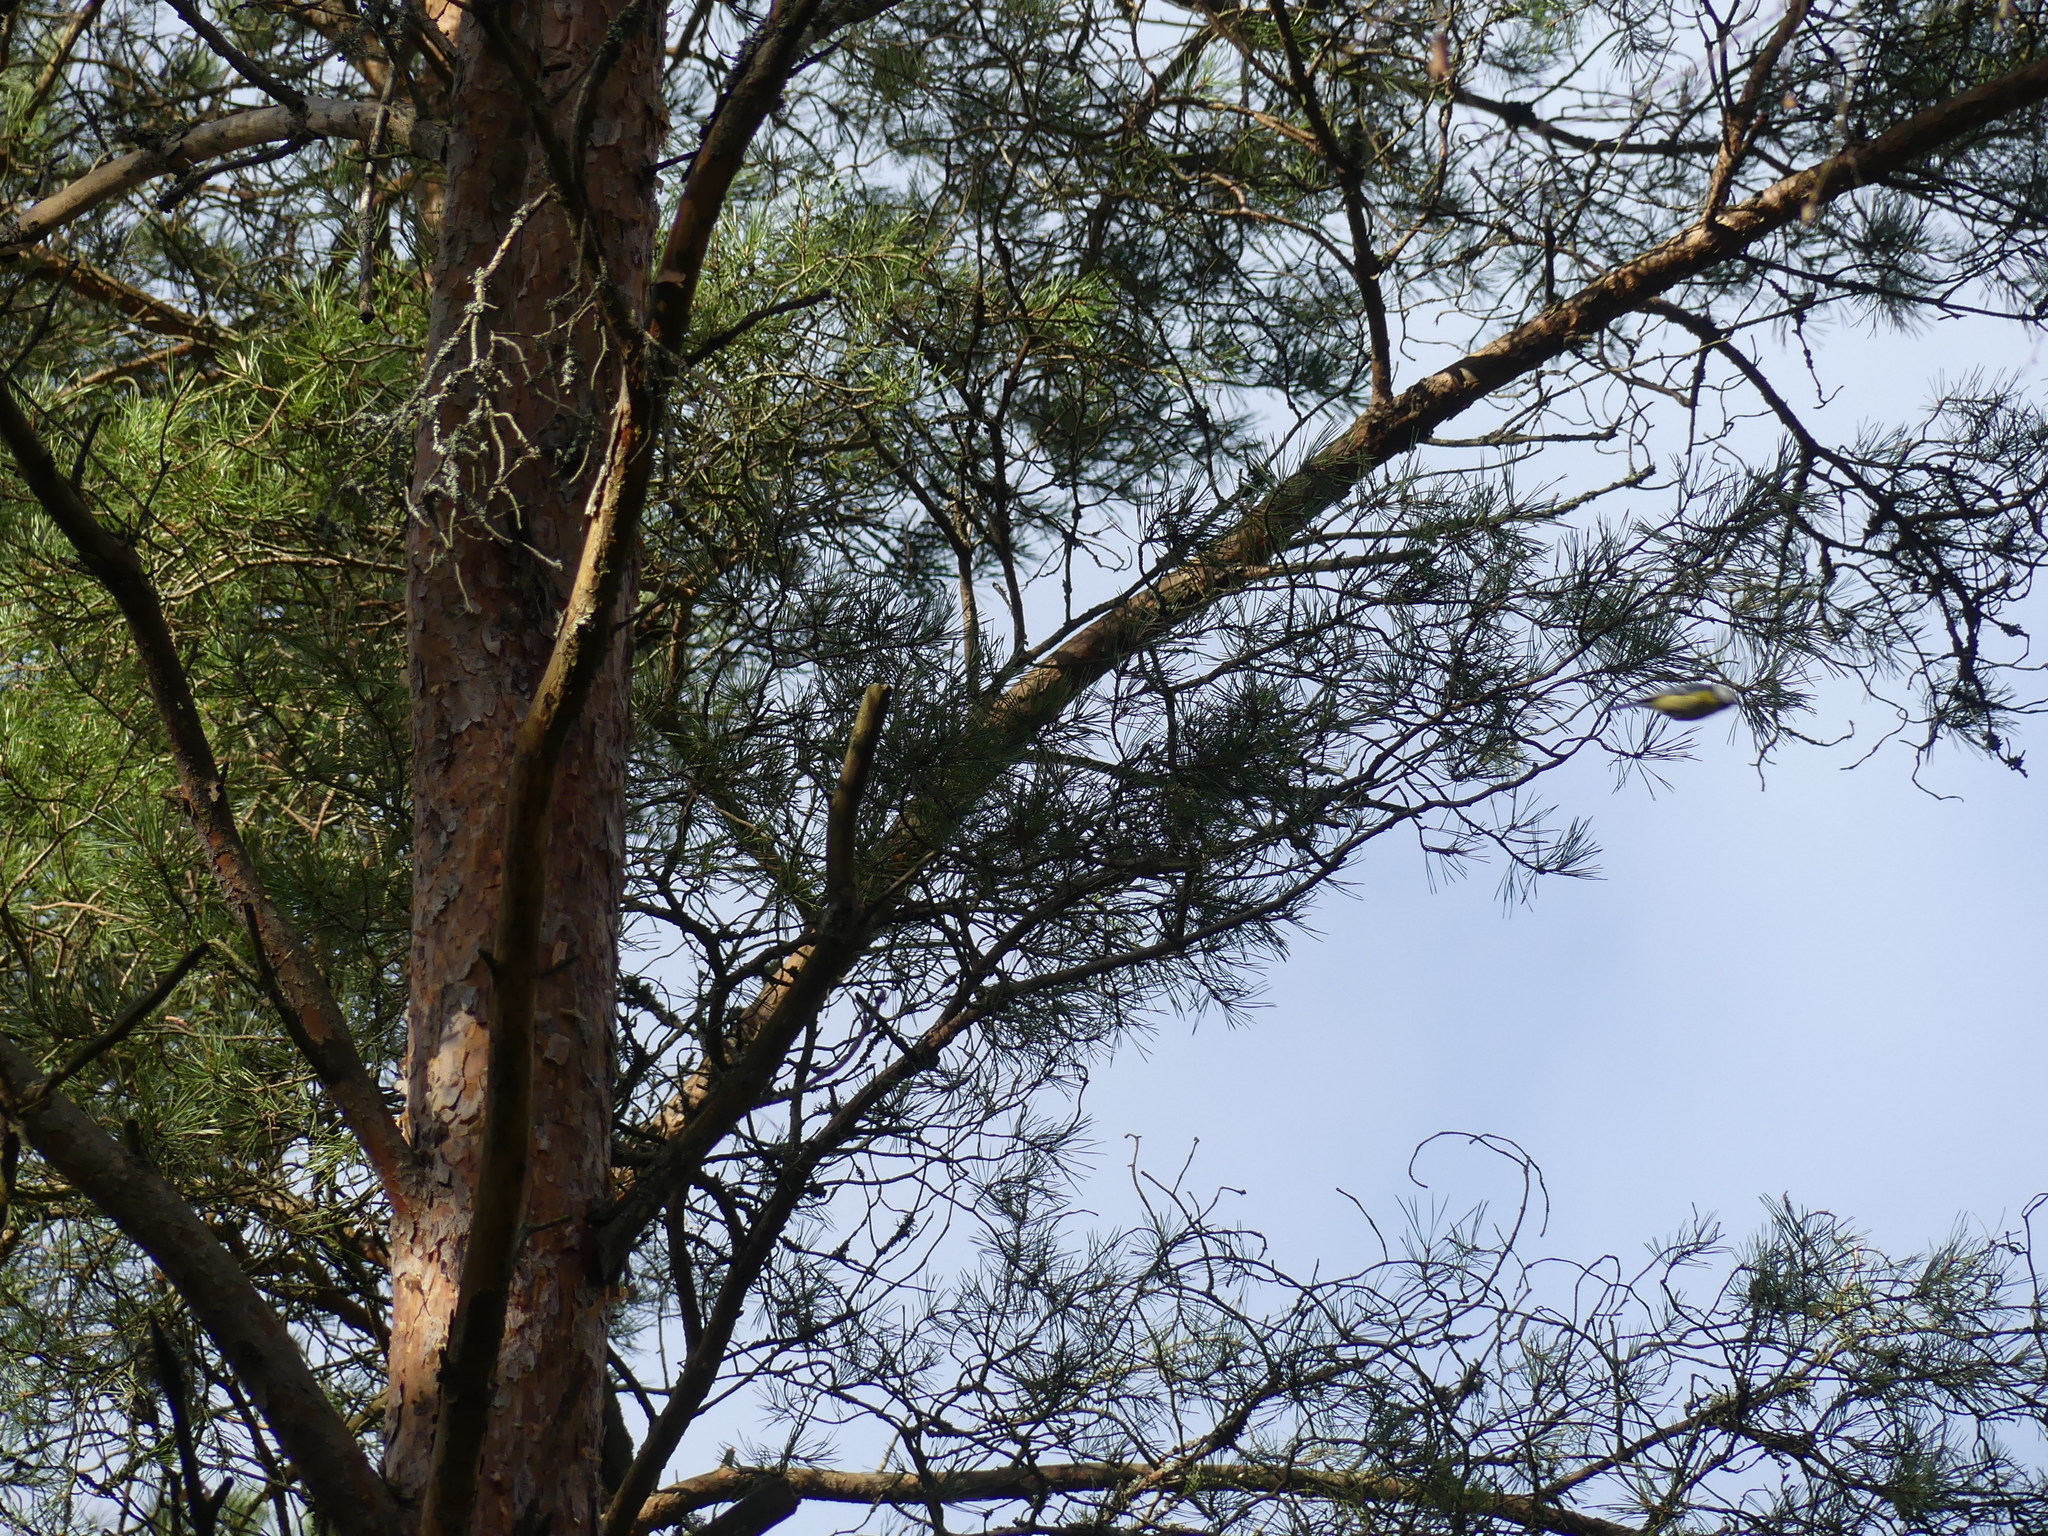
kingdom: Plantae
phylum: Tracheophyta
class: Pinopsida
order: Pinales
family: Pinaceae
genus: Pinus
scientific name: Pinus sylvestris
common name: Scots pine
